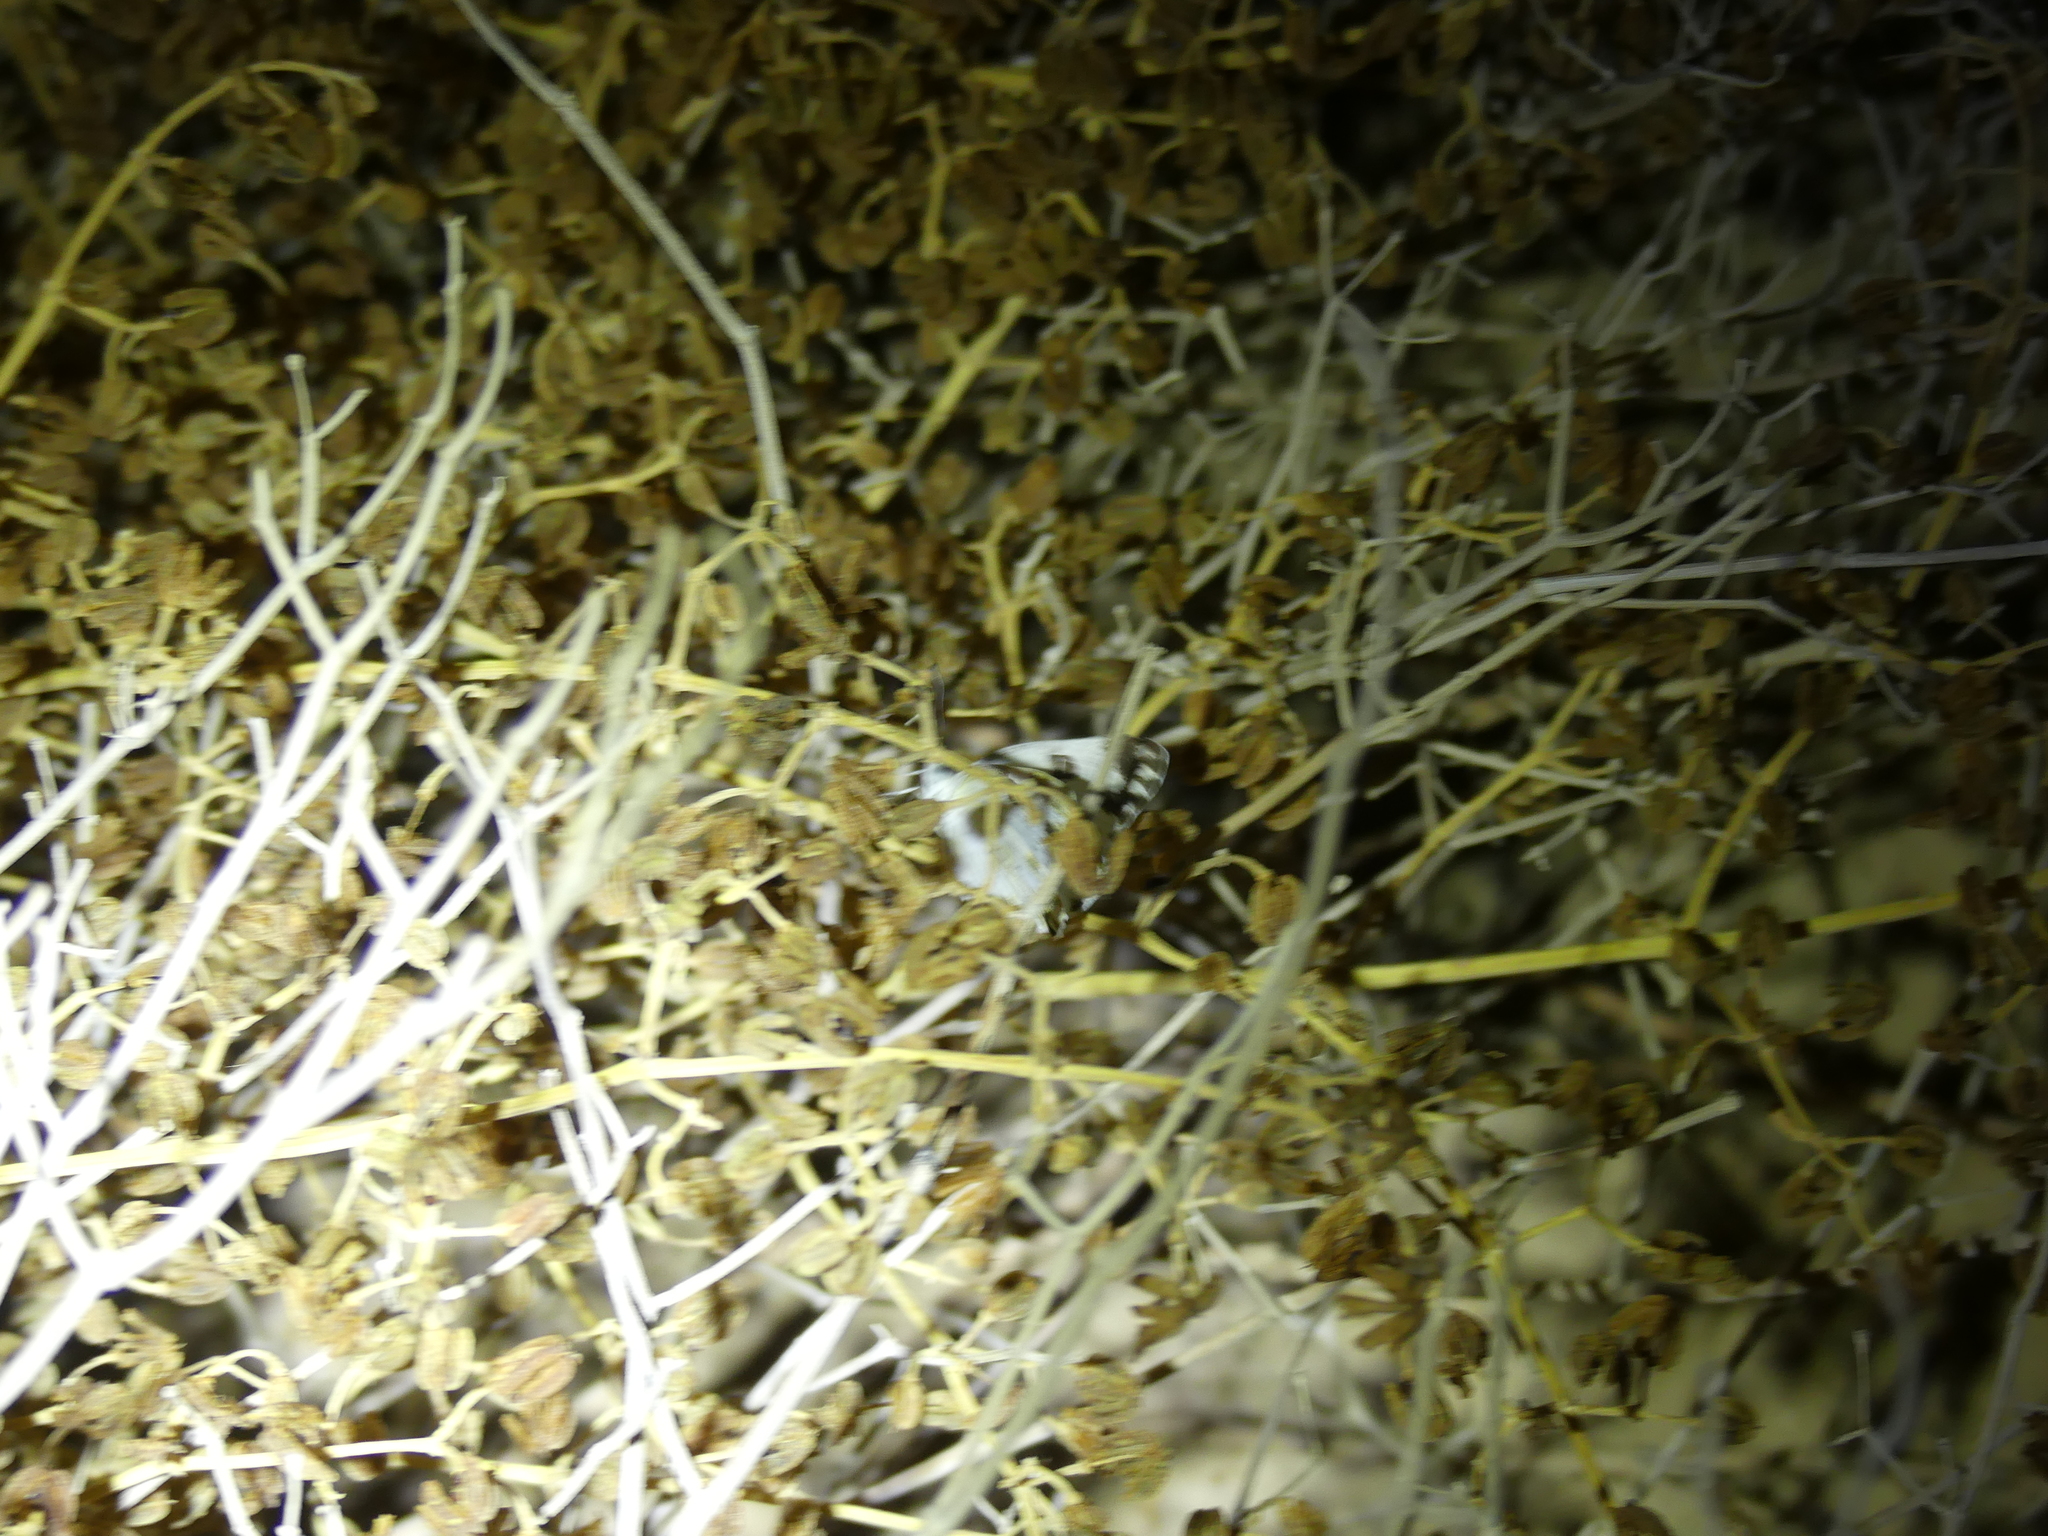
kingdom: Animalia
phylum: Arthropoda
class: Insecta
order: Lepidoptera
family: Pieridae
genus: Pontia
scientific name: Pontia glauconome
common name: Desert bath white
